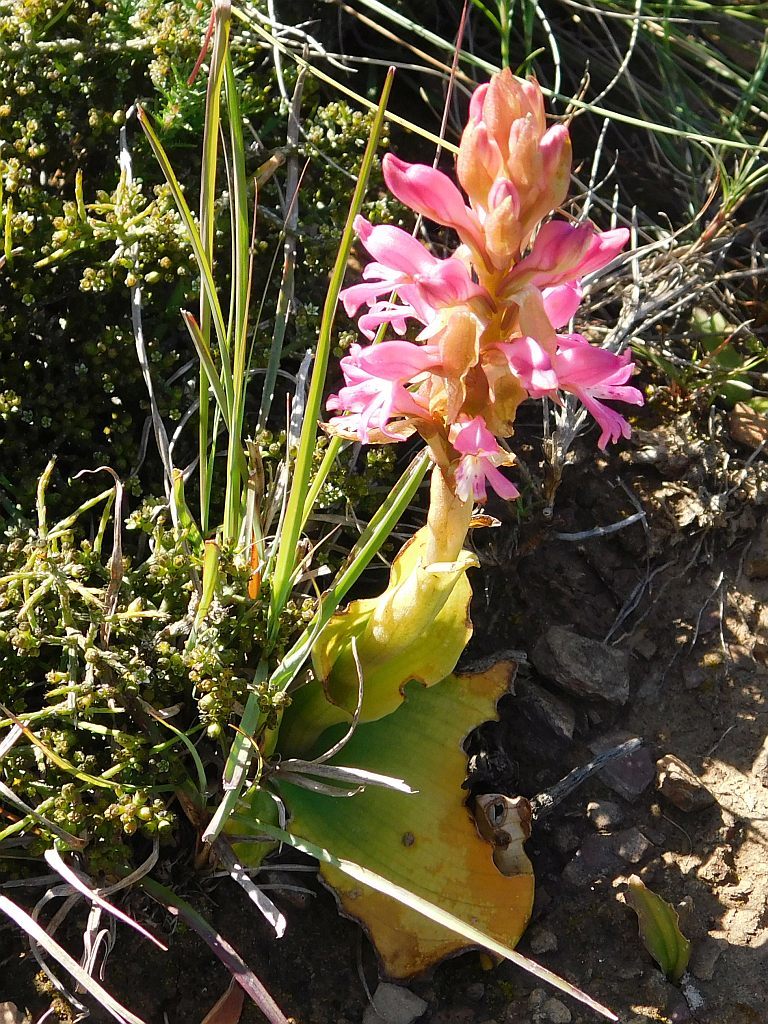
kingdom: Plantae
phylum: Tracheophyta
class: Liliopsida
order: Asparagales
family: Orchidaceae
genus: Satyrium
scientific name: Satyrium erectum
